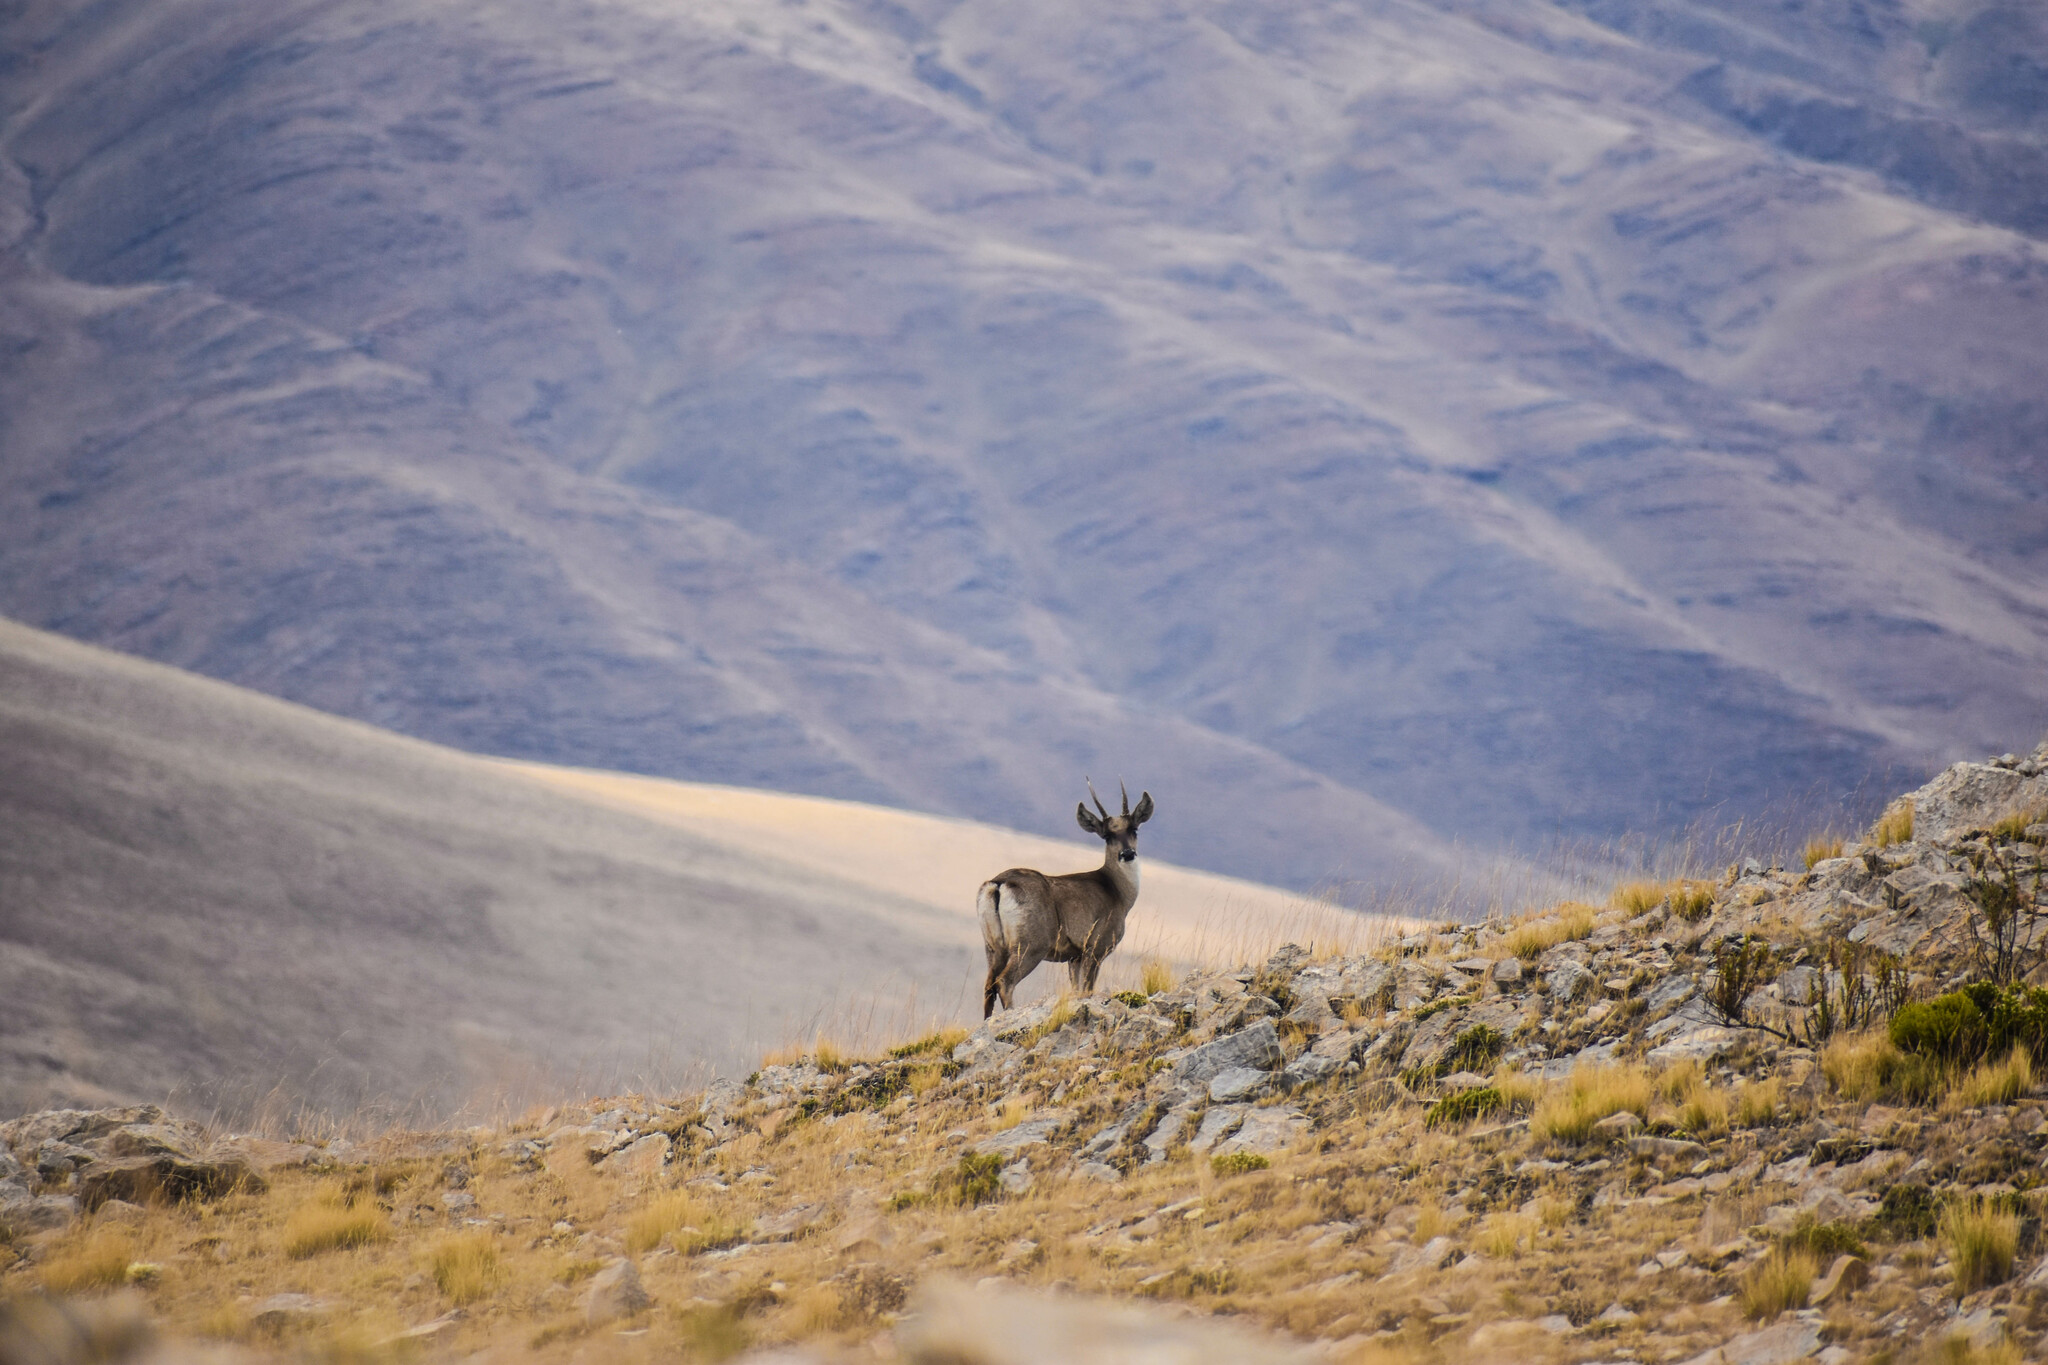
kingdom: Animalia
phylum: Chordata
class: Mammalia
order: Artiodactyla
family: Cervidae
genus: Hippocamelus
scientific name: Hippocamelus antisensis
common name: Taruca
